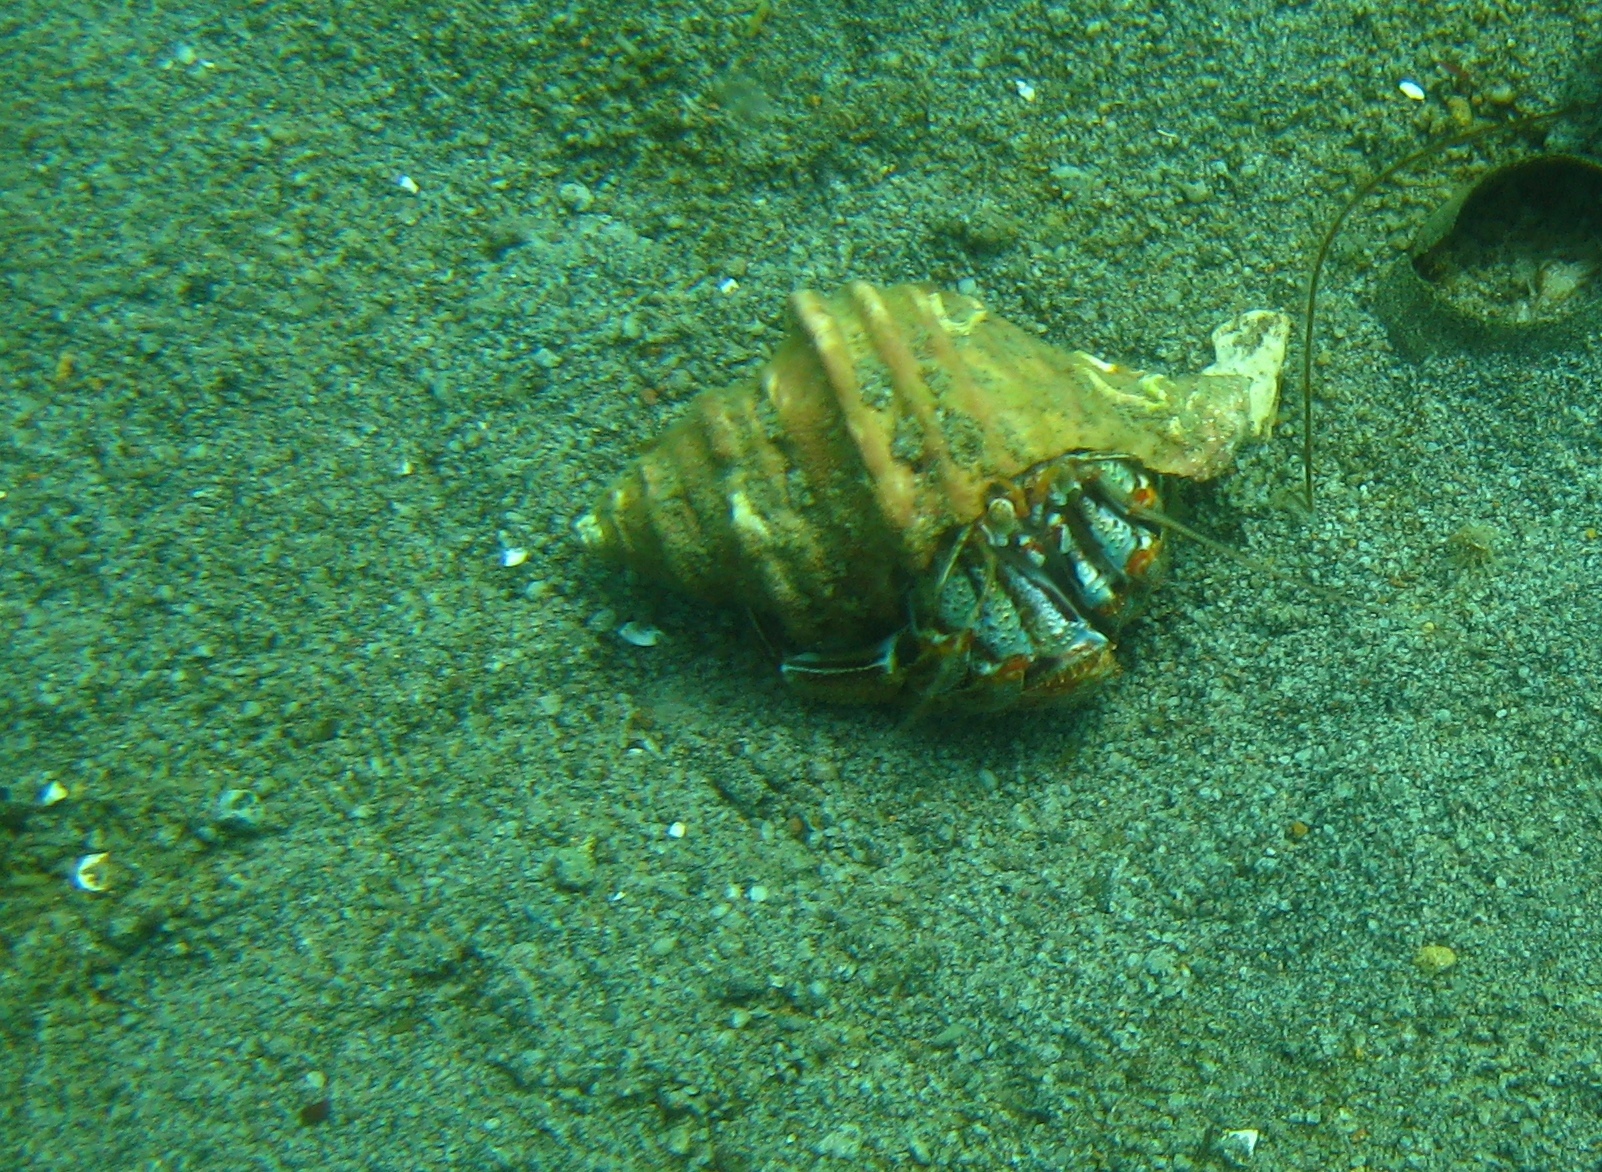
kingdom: Animalia
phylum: Arthropoda
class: Malacostraca
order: Decapoda
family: Paguridae
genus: Pagurus
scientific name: Pagurus ochotensis
